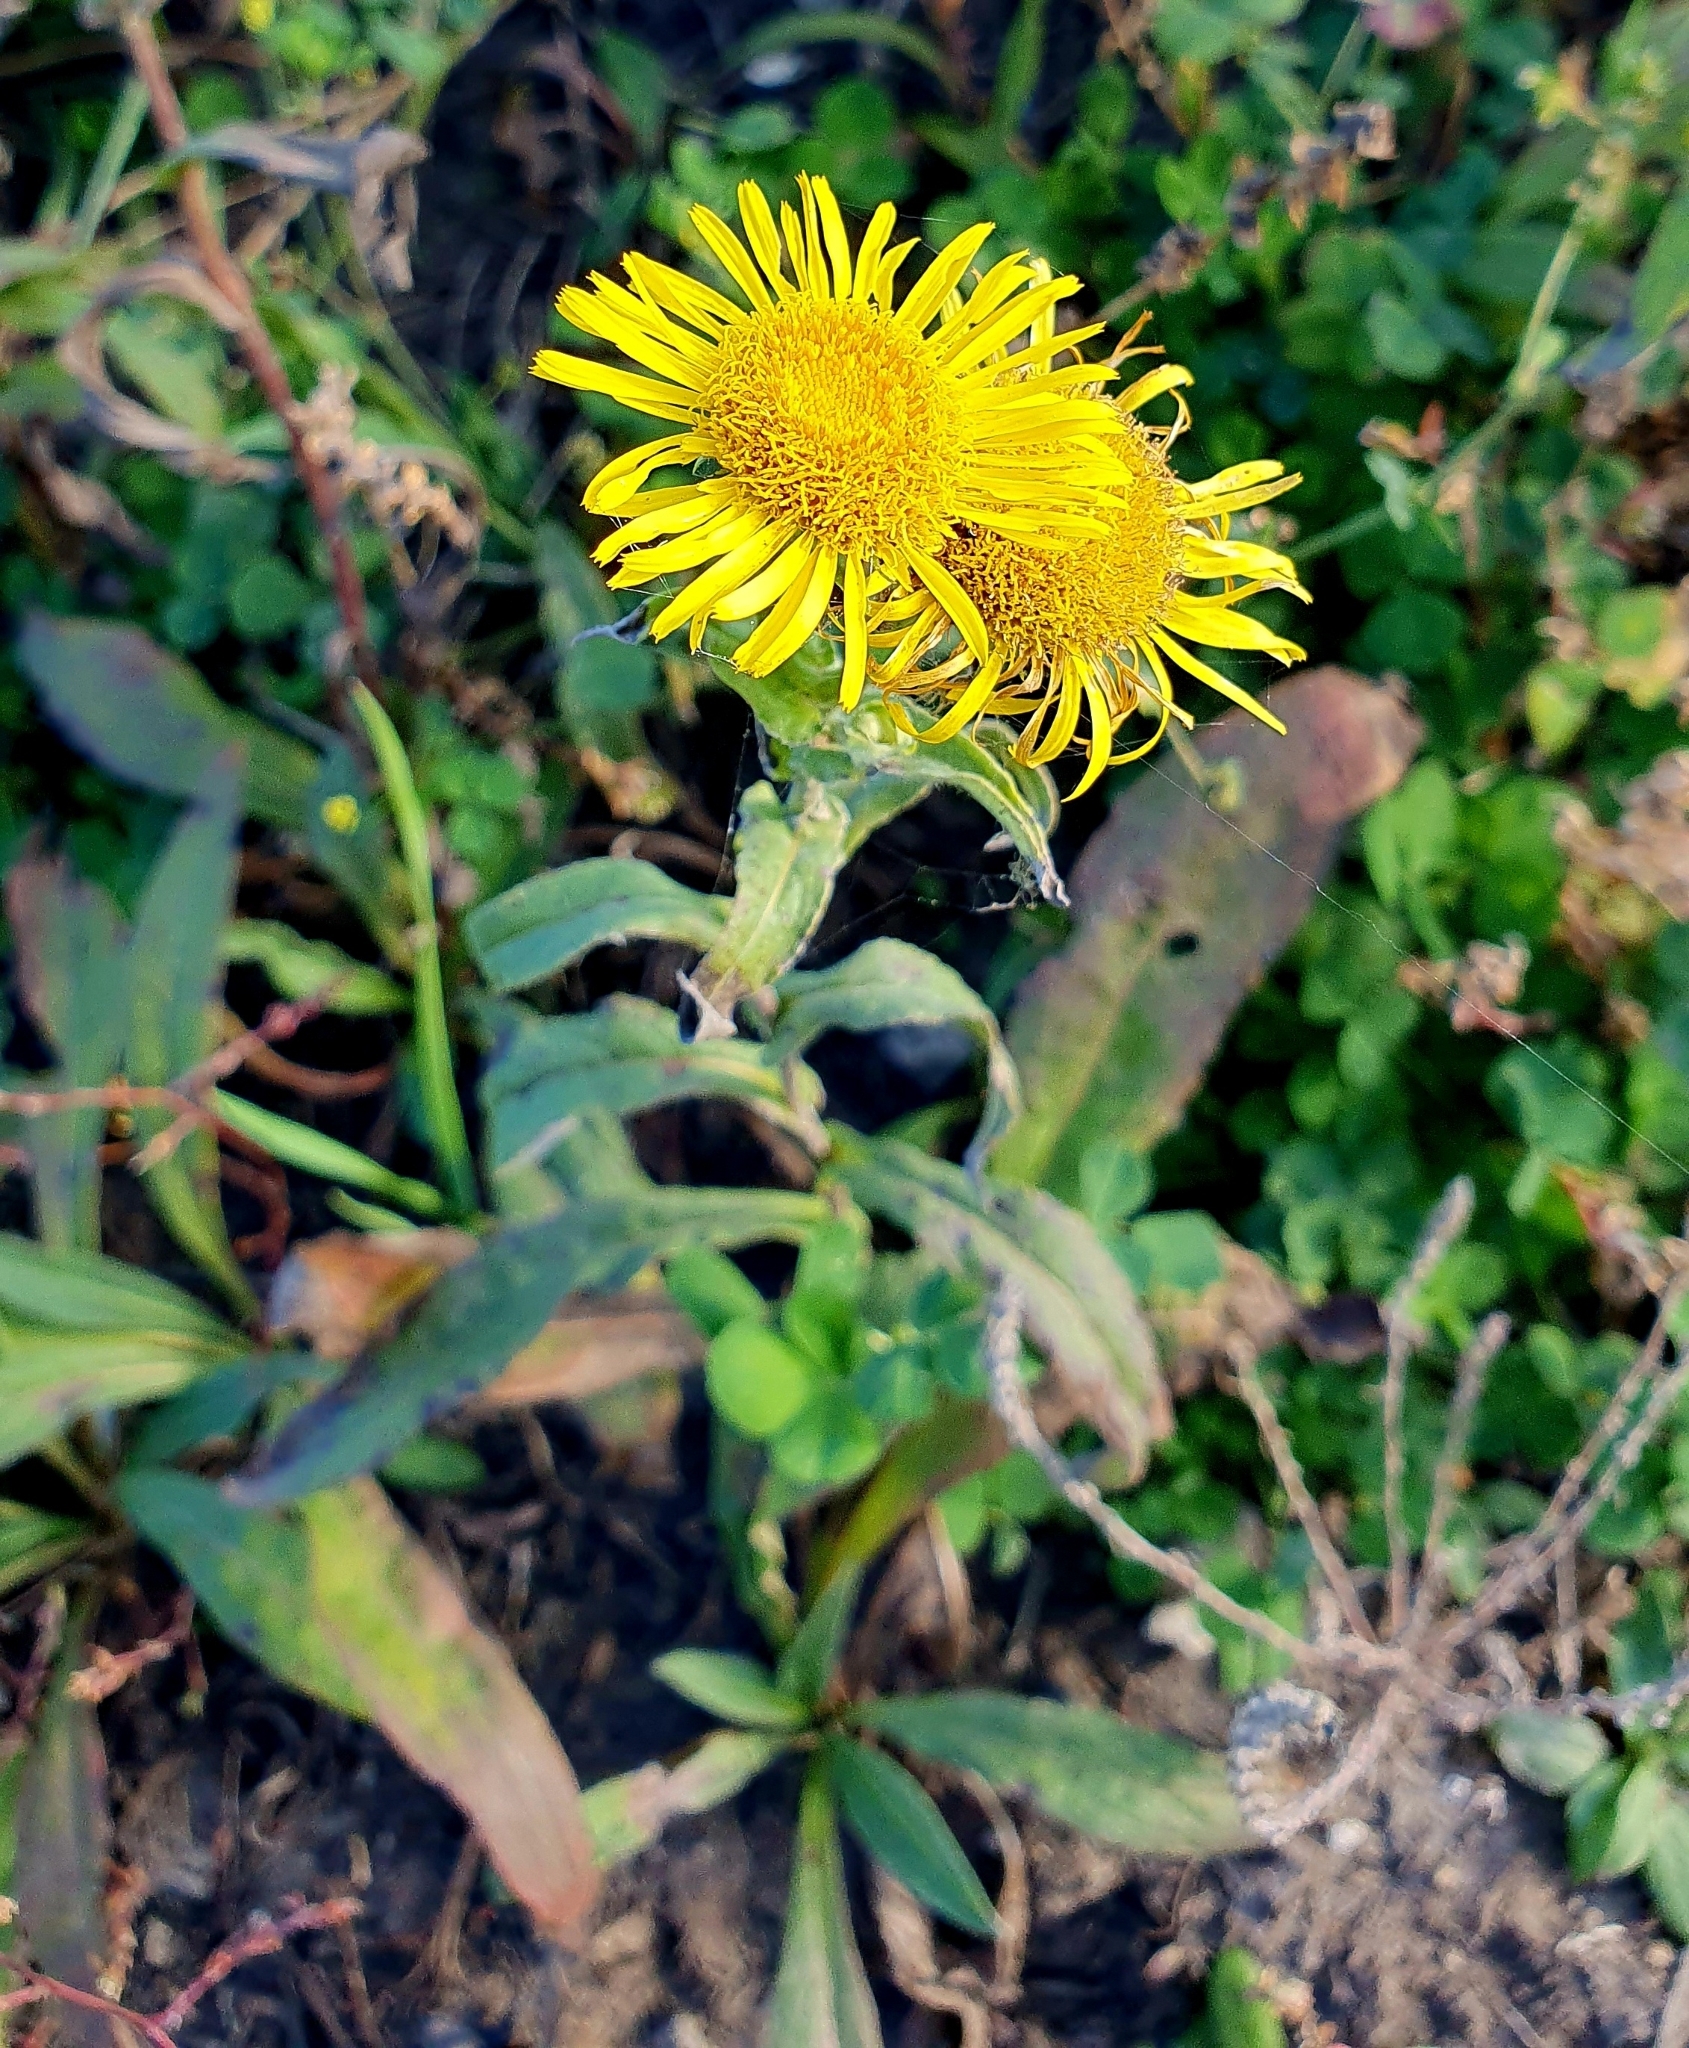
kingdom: Plantae
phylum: Tracheophyta
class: Magnoliopsida
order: Asterales
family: Asteraceae
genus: Pentanema
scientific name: Pentanema britannicum
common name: British elecampane
